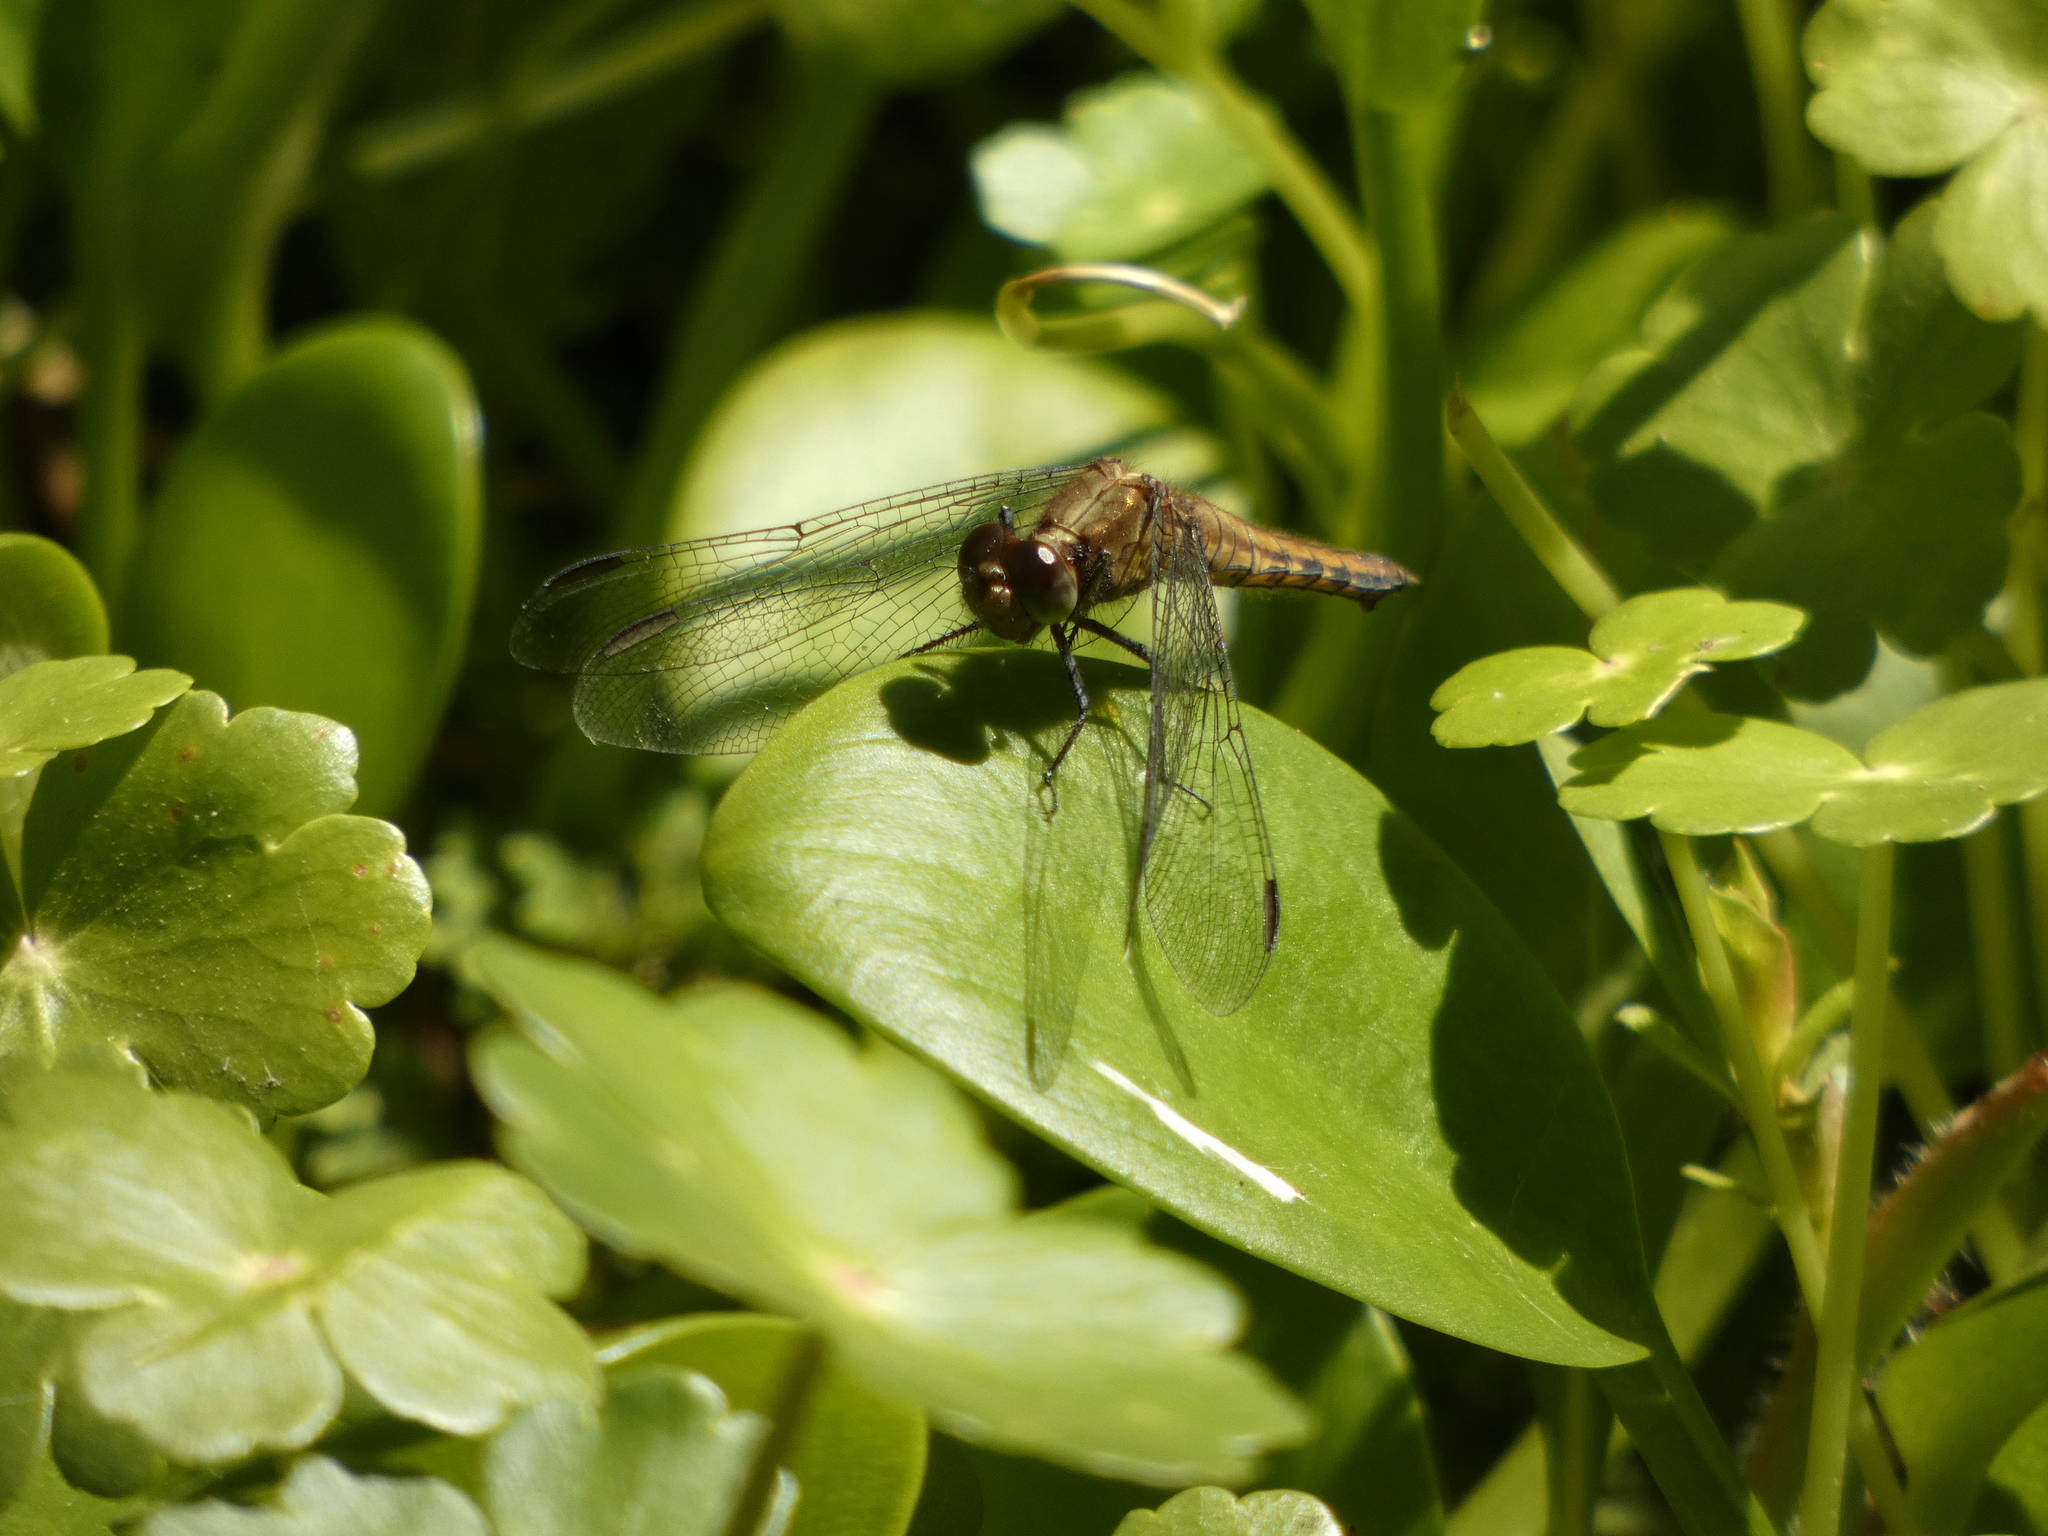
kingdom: Animalia
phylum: Arthropoda
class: Insecta
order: Odonata
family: Libellulidae
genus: Erythrodiplax
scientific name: Erythrodiplax connata
